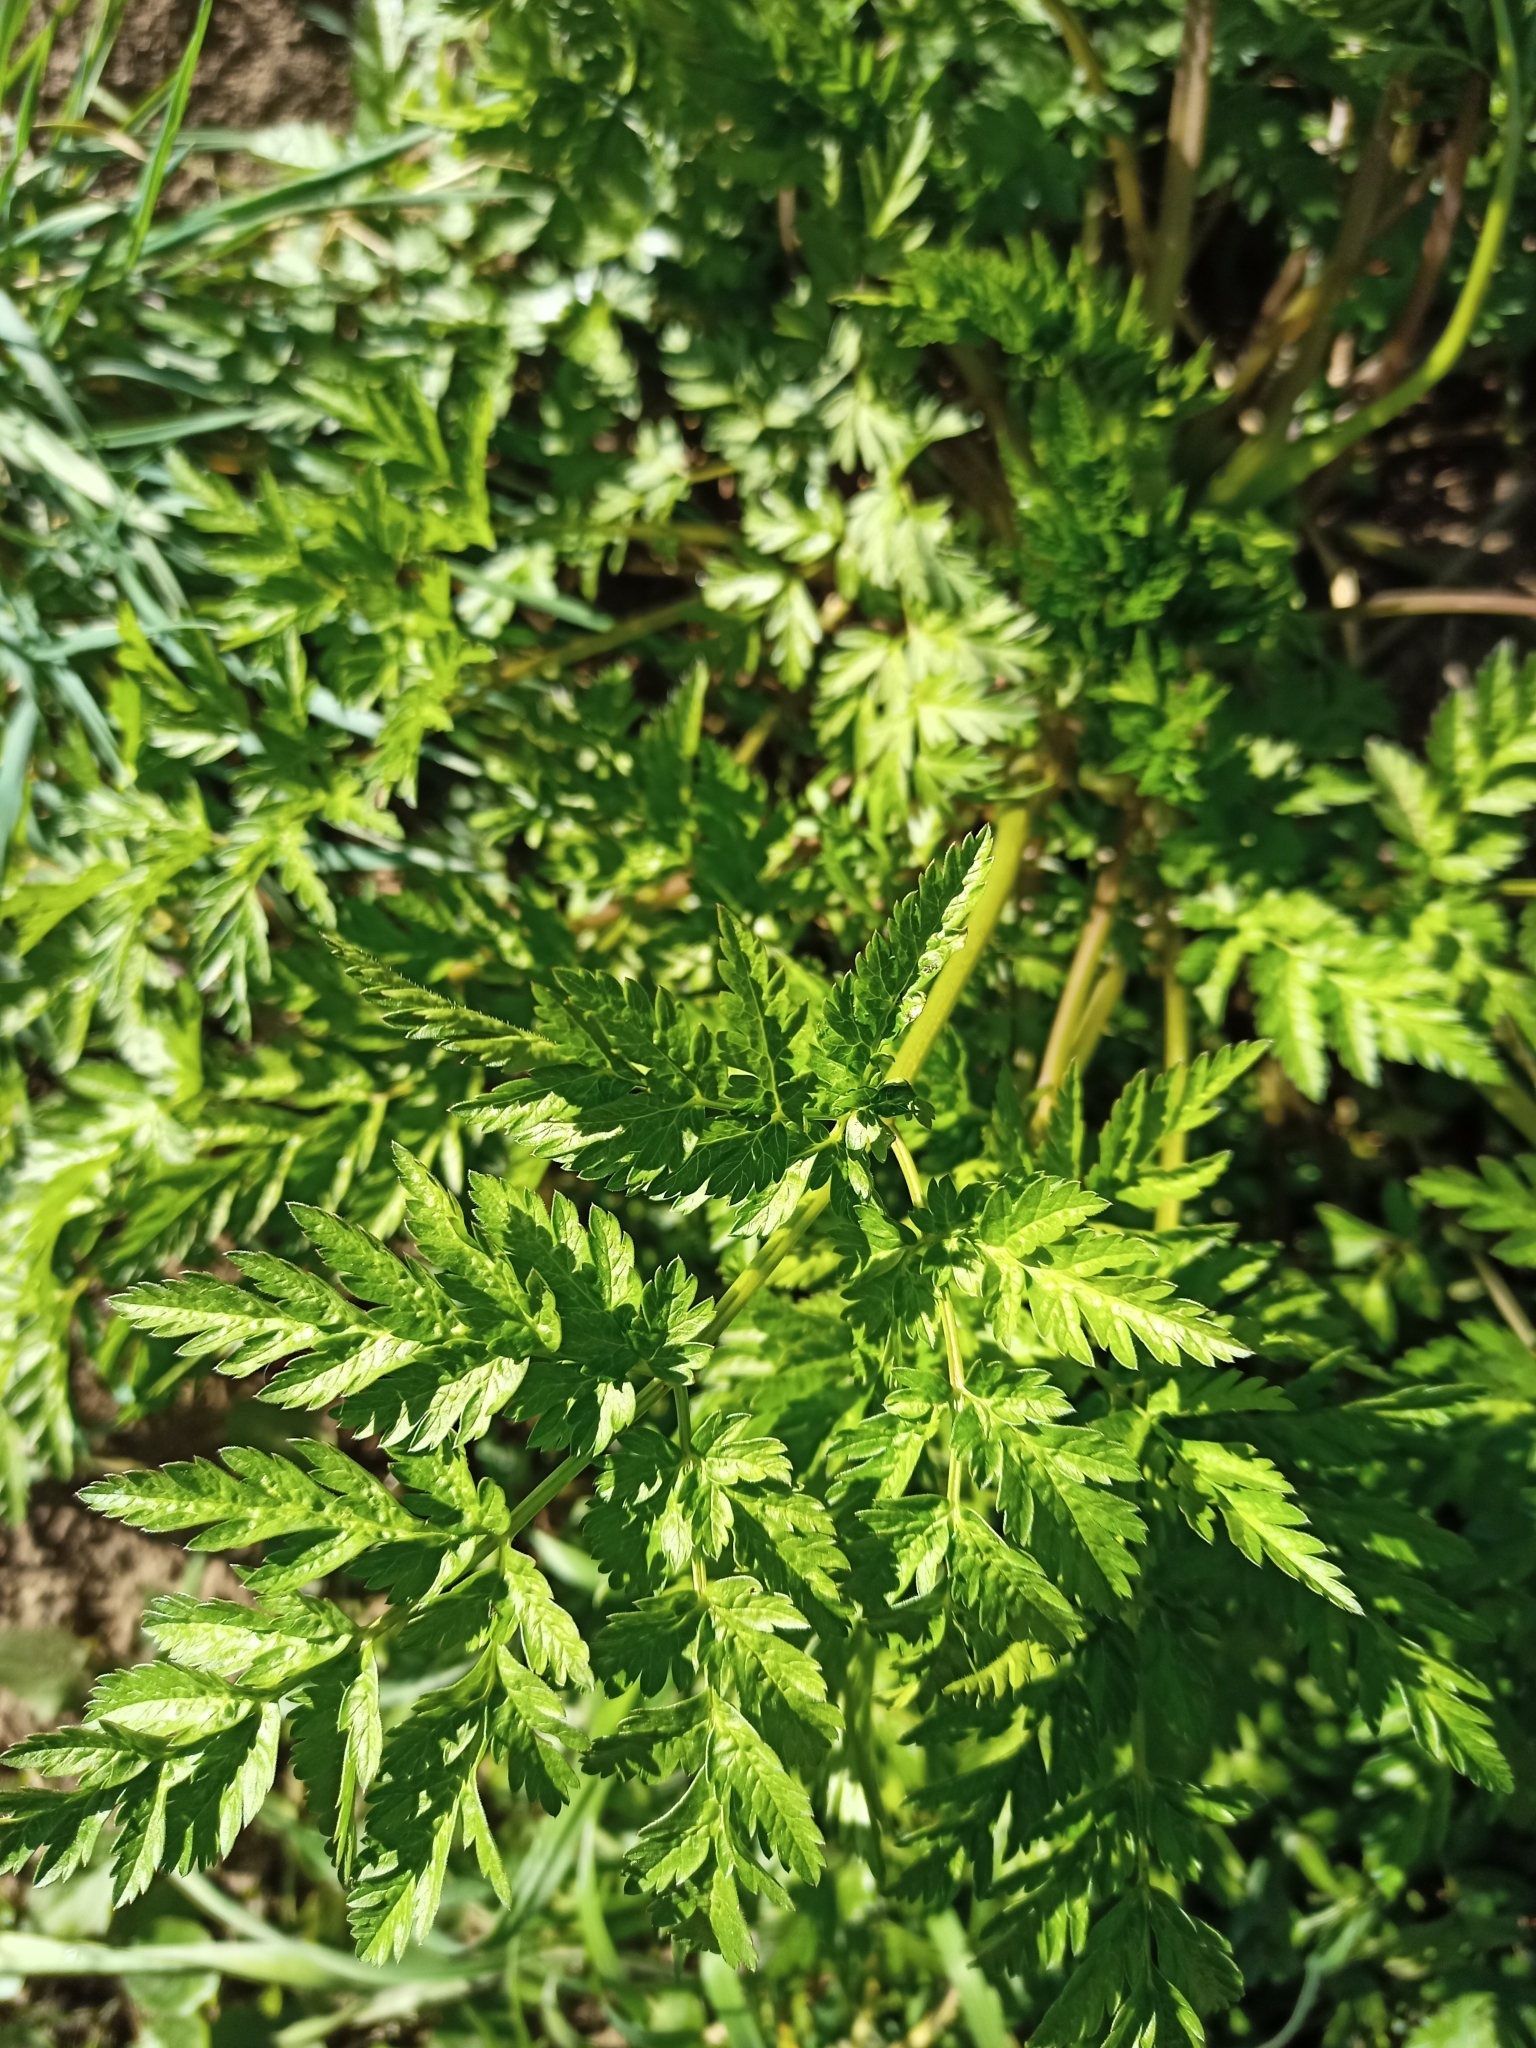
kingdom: Plantae
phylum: Tracheophyta
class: Magnoliopsida
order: Apiales
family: Apiaceae
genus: Anthriscus
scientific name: Anthriscus sylvestris
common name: Cow parsley
